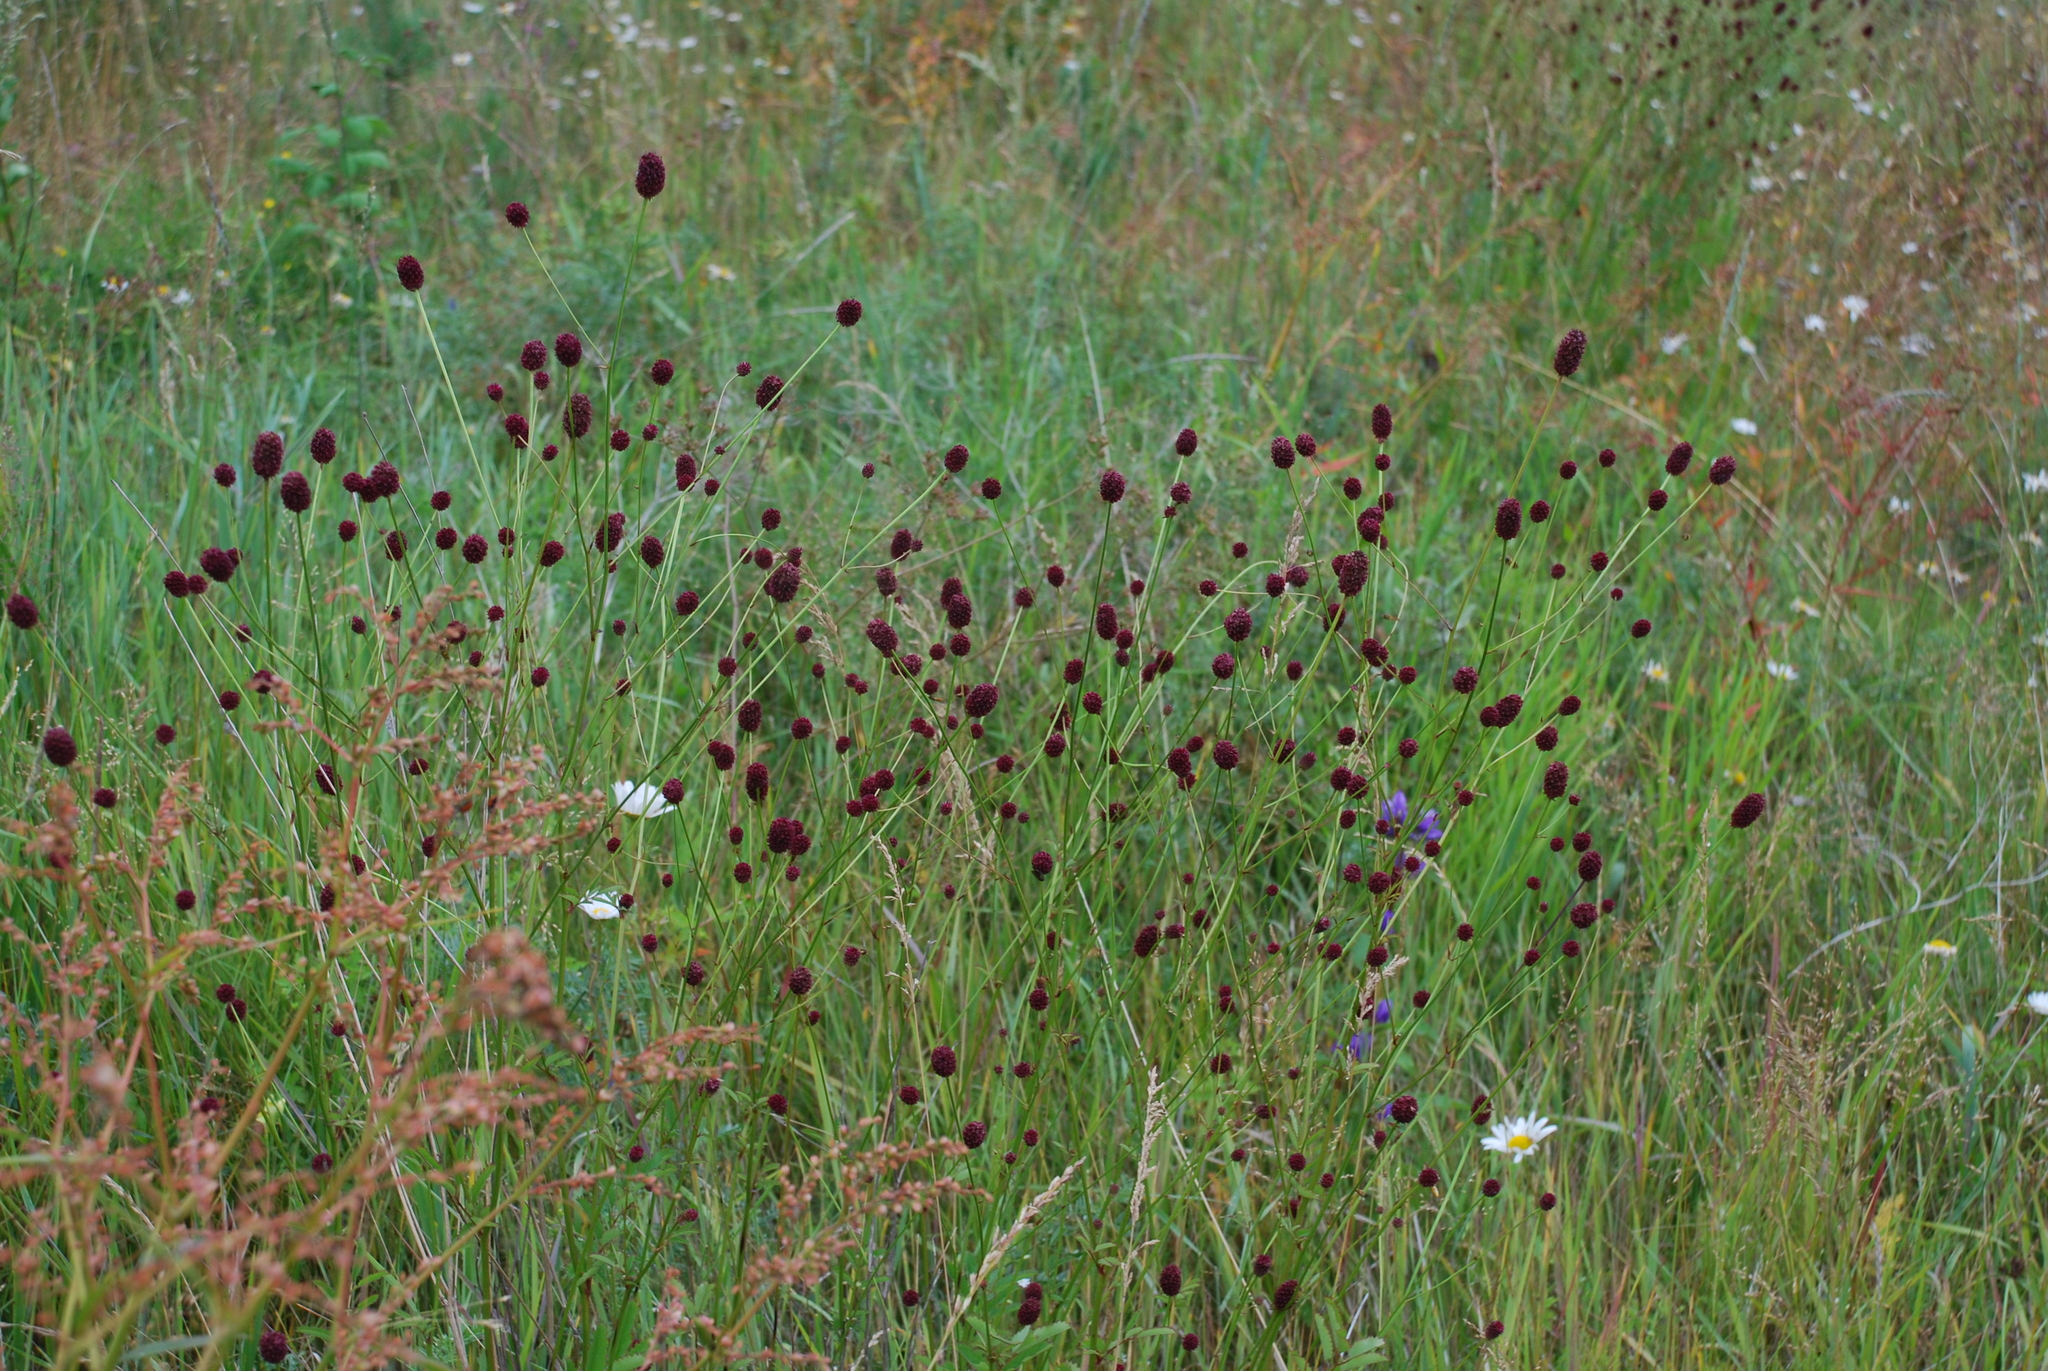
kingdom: Plantae
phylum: Tracheophyta
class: Magnoliopsida
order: Rosales
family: Rosaceae
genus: Sanguisorba
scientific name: Sanguisorba officinalis
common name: Great burnet
